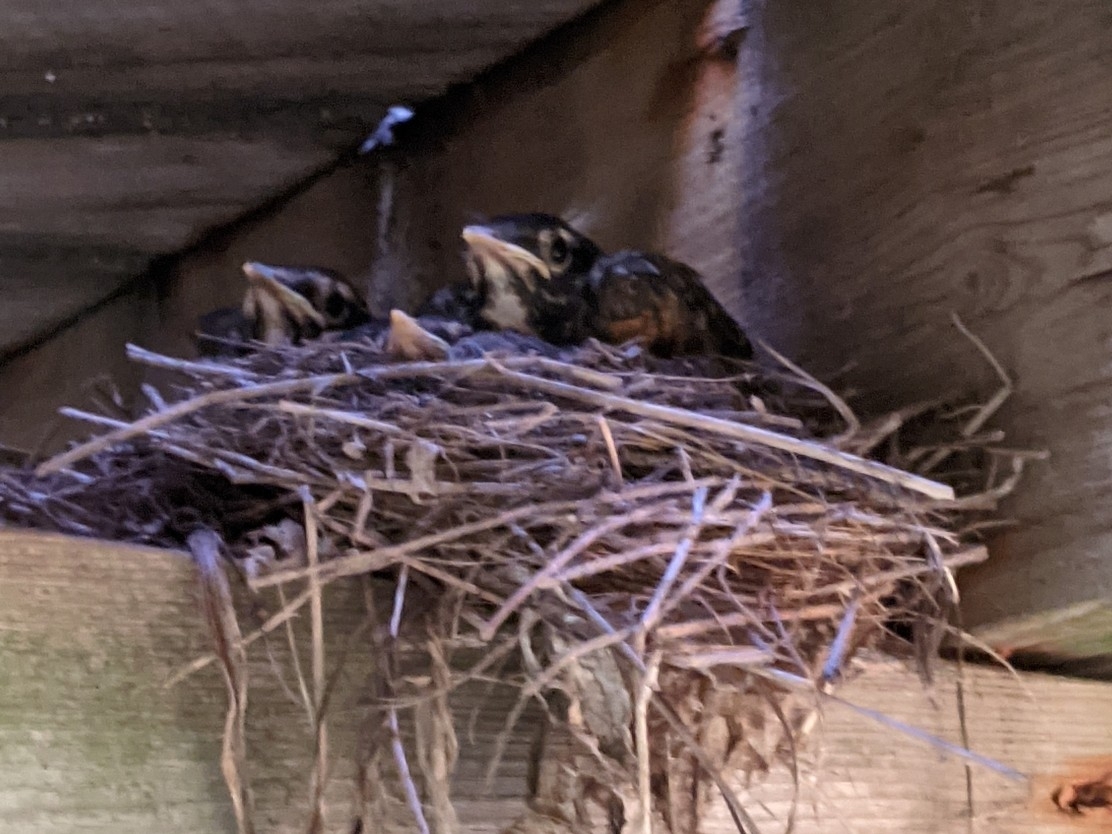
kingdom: Animalia
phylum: Chordata
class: Aves
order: Passeriformes
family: Turdidae
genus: Turdus
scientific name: Turdus migratorius
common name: American robin
